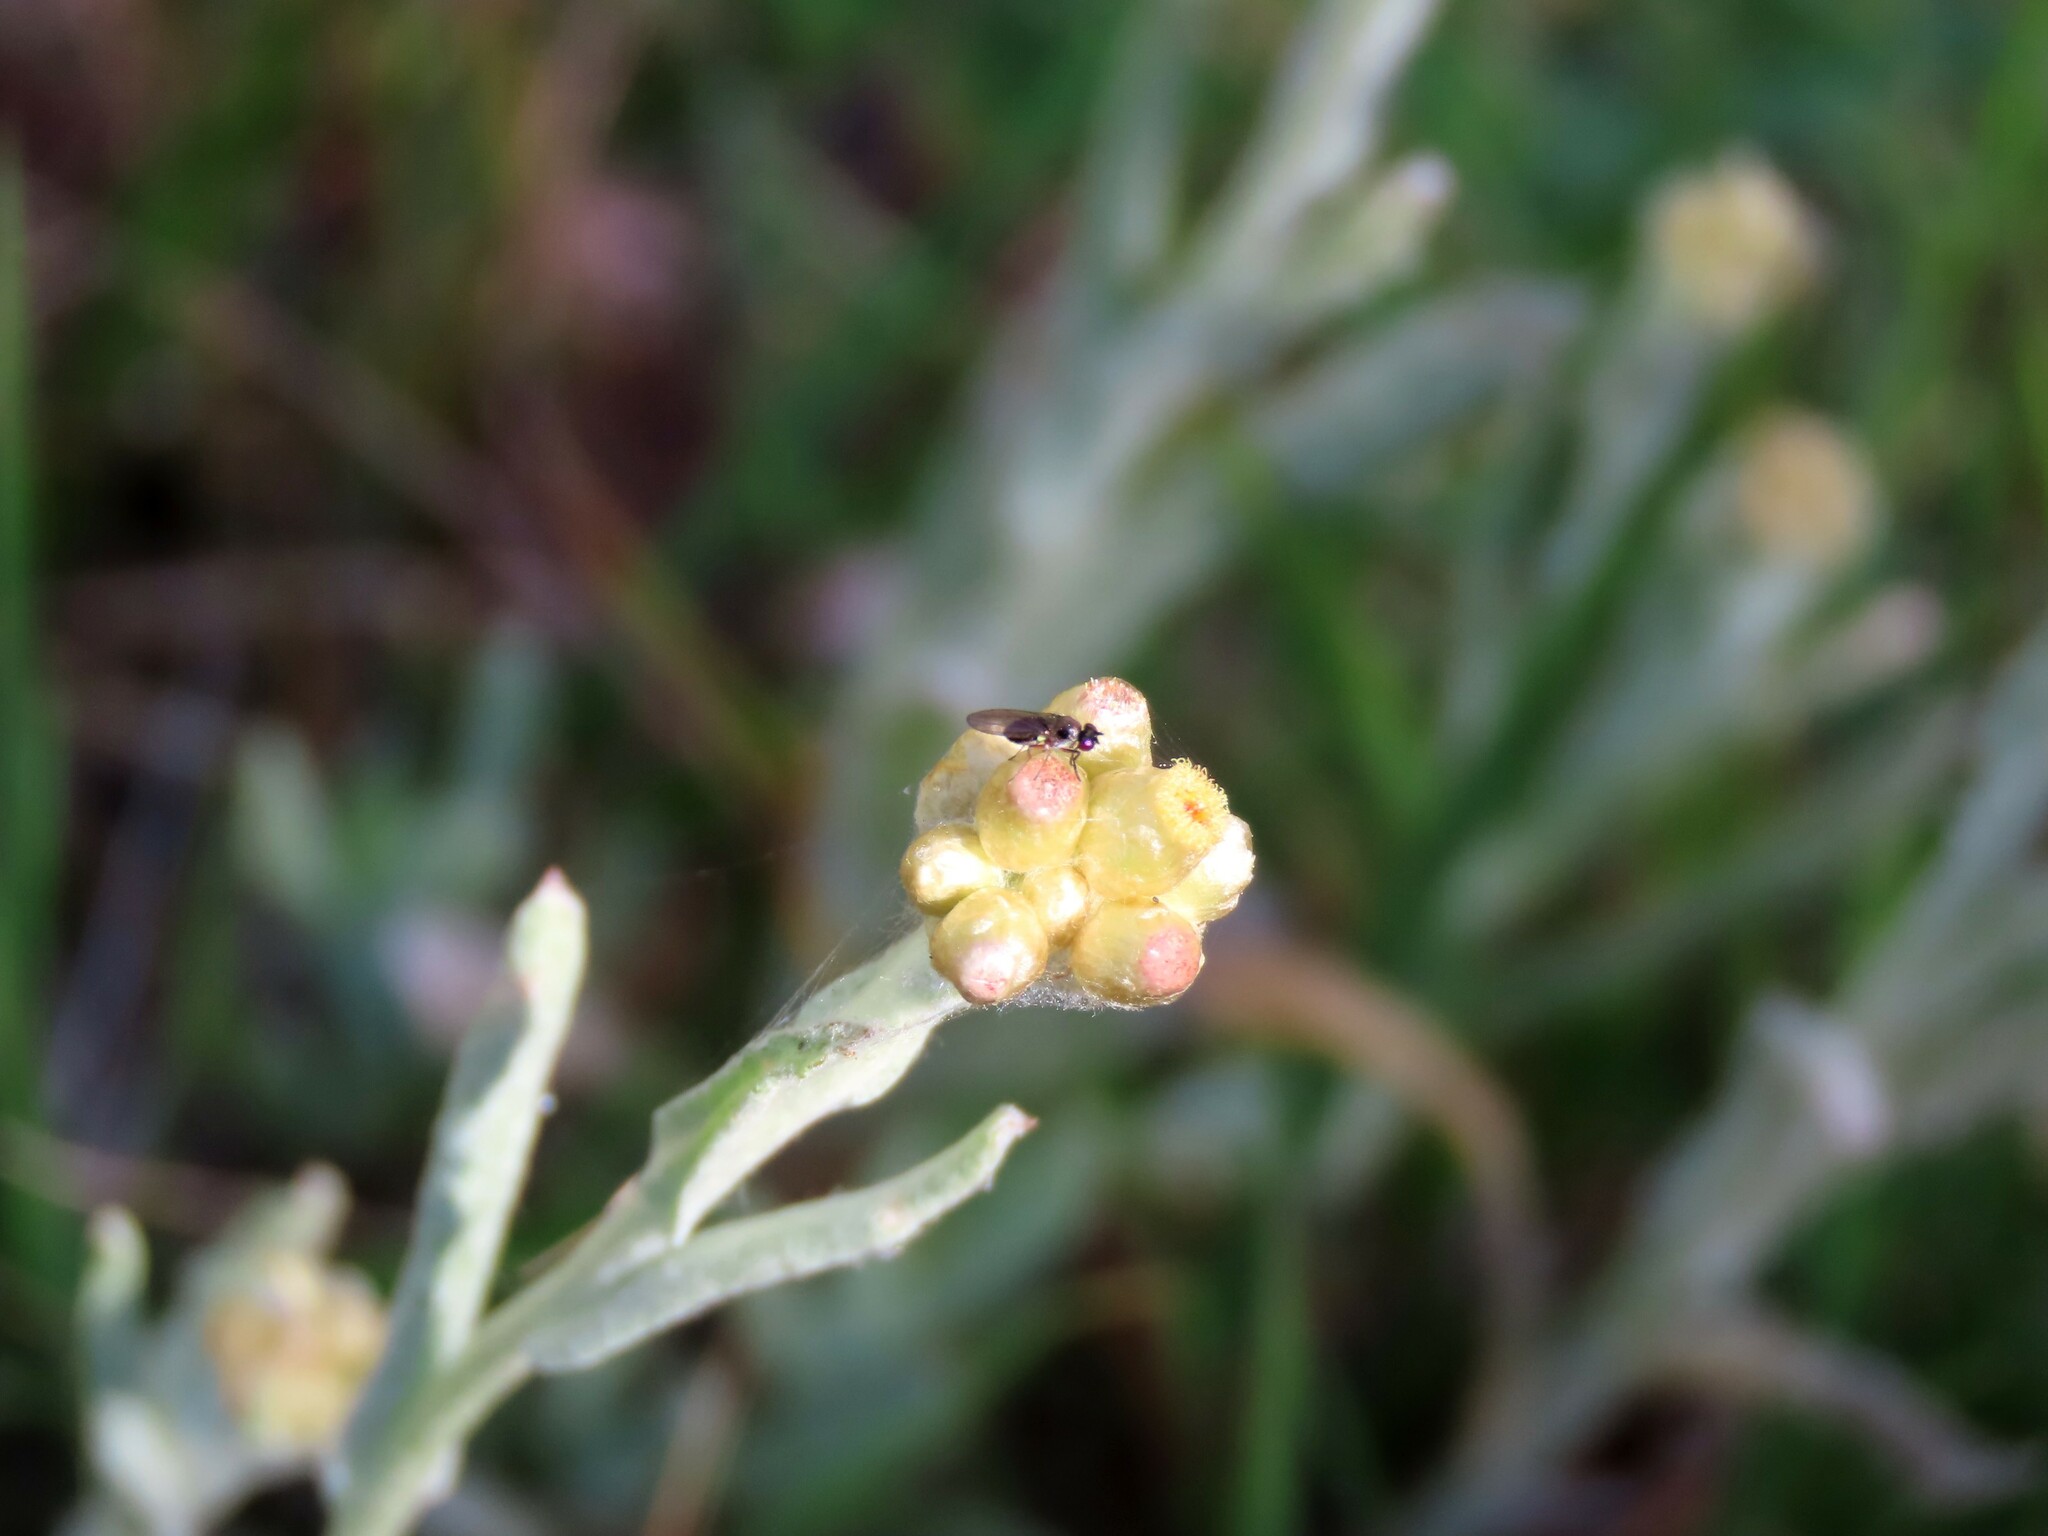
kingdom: Plantae
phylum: Tracheophyta
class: Magnoliopsida
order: Asterales
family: Asteraceae
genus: Helichrysum
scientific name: Helichrysum luteoalbum
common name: Daisy
